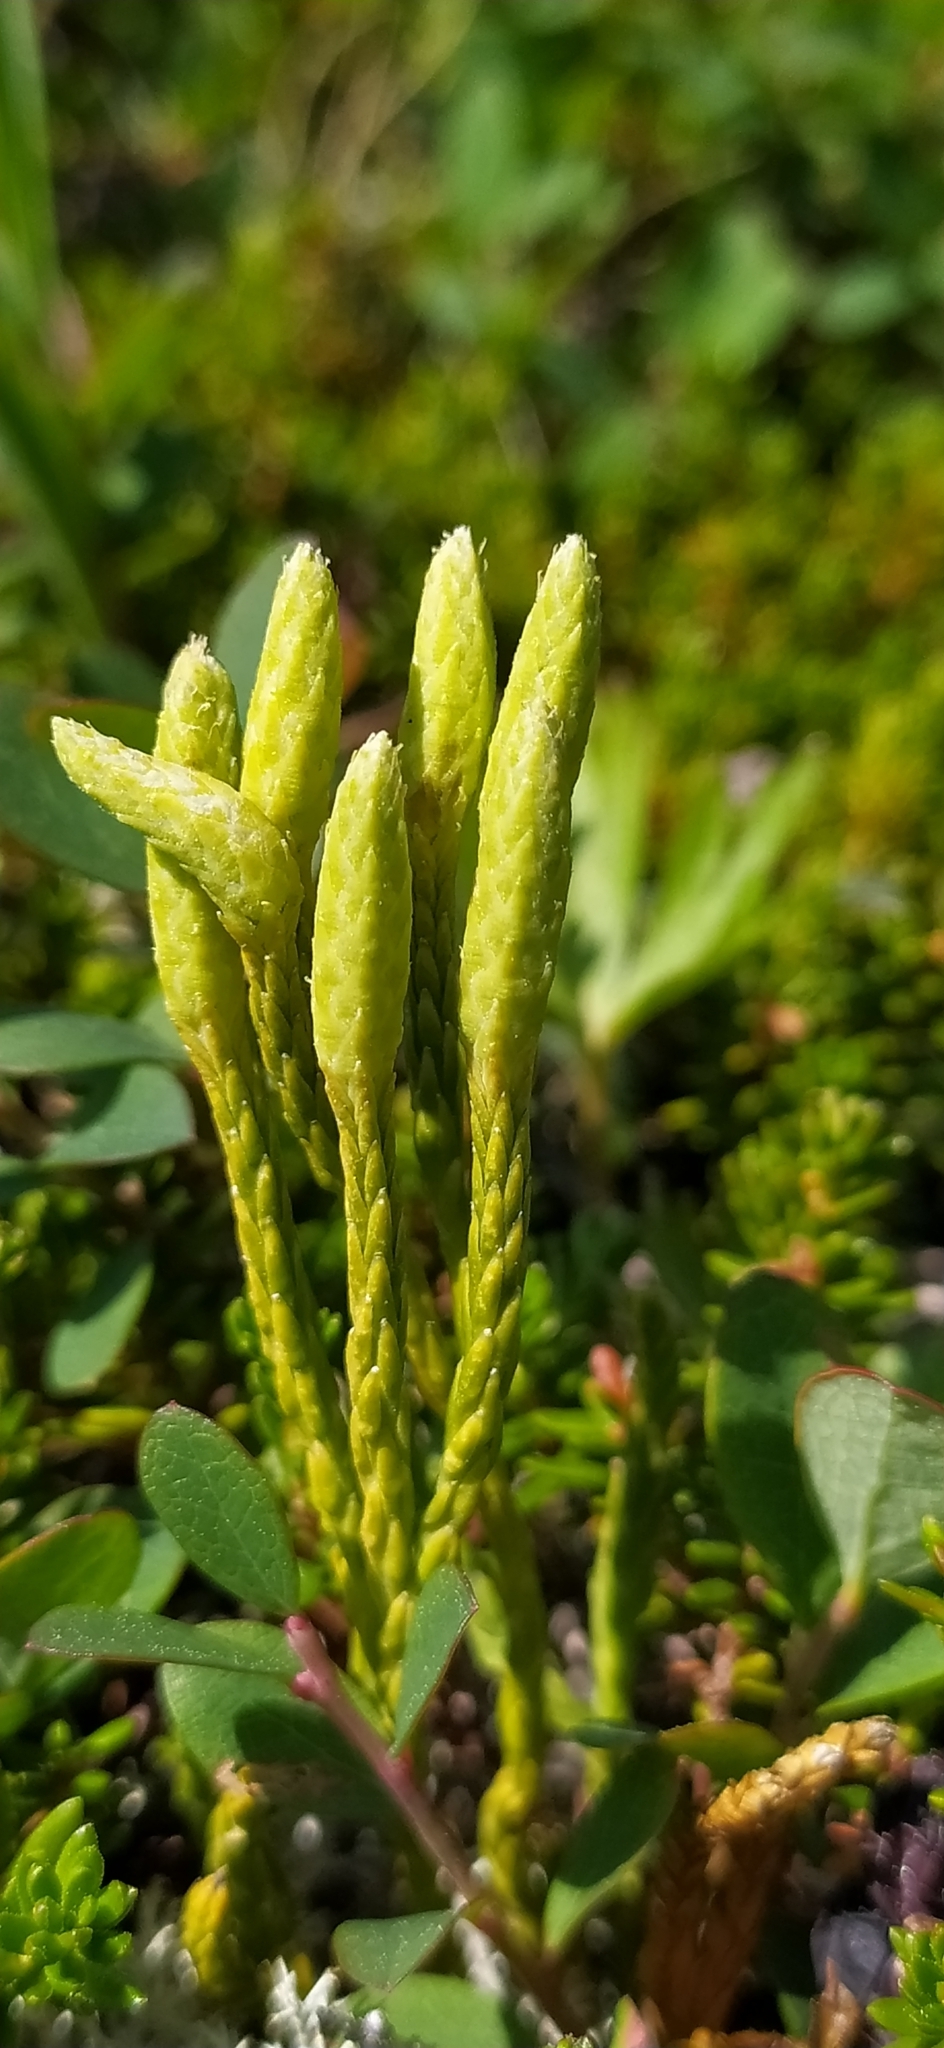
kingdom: Plantae
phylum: Tracheophyta
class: Lycopodiopsida
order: Lycopodiales
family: Lycopodiaceae
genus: Diphasiastrum
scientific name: Diphasiastrum issleri
